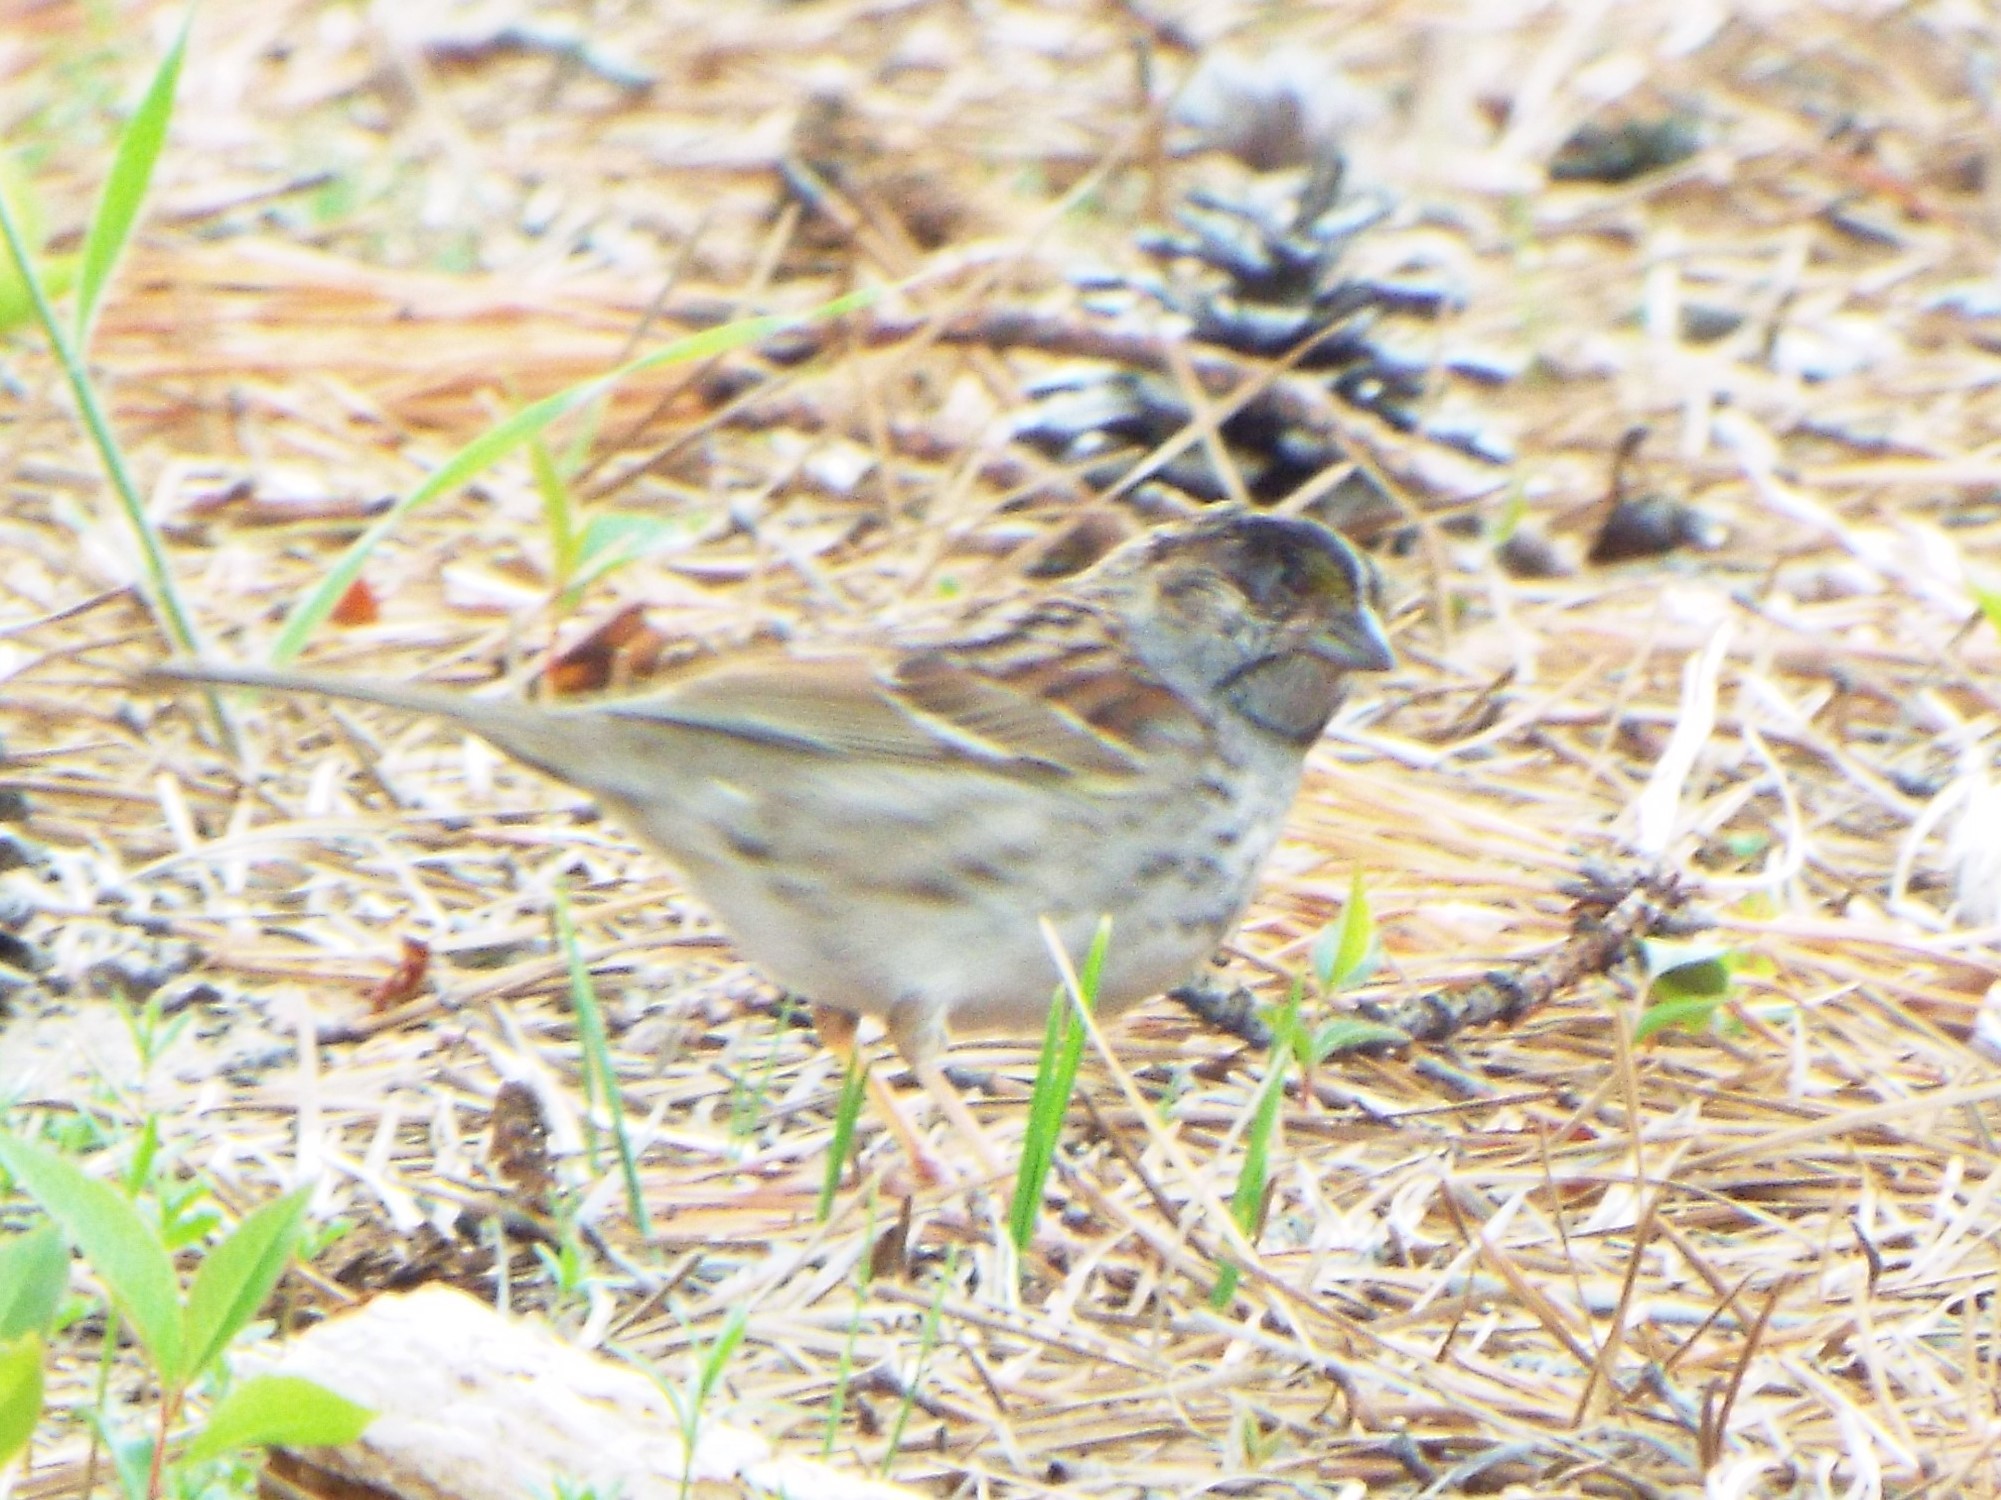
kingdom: Animalia
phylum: Chordata
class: Aves
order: Passeriformes
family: Passerellidae
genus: Zonotrichia
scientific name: Zonotrichia albicollis
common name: White-throated sparrow
